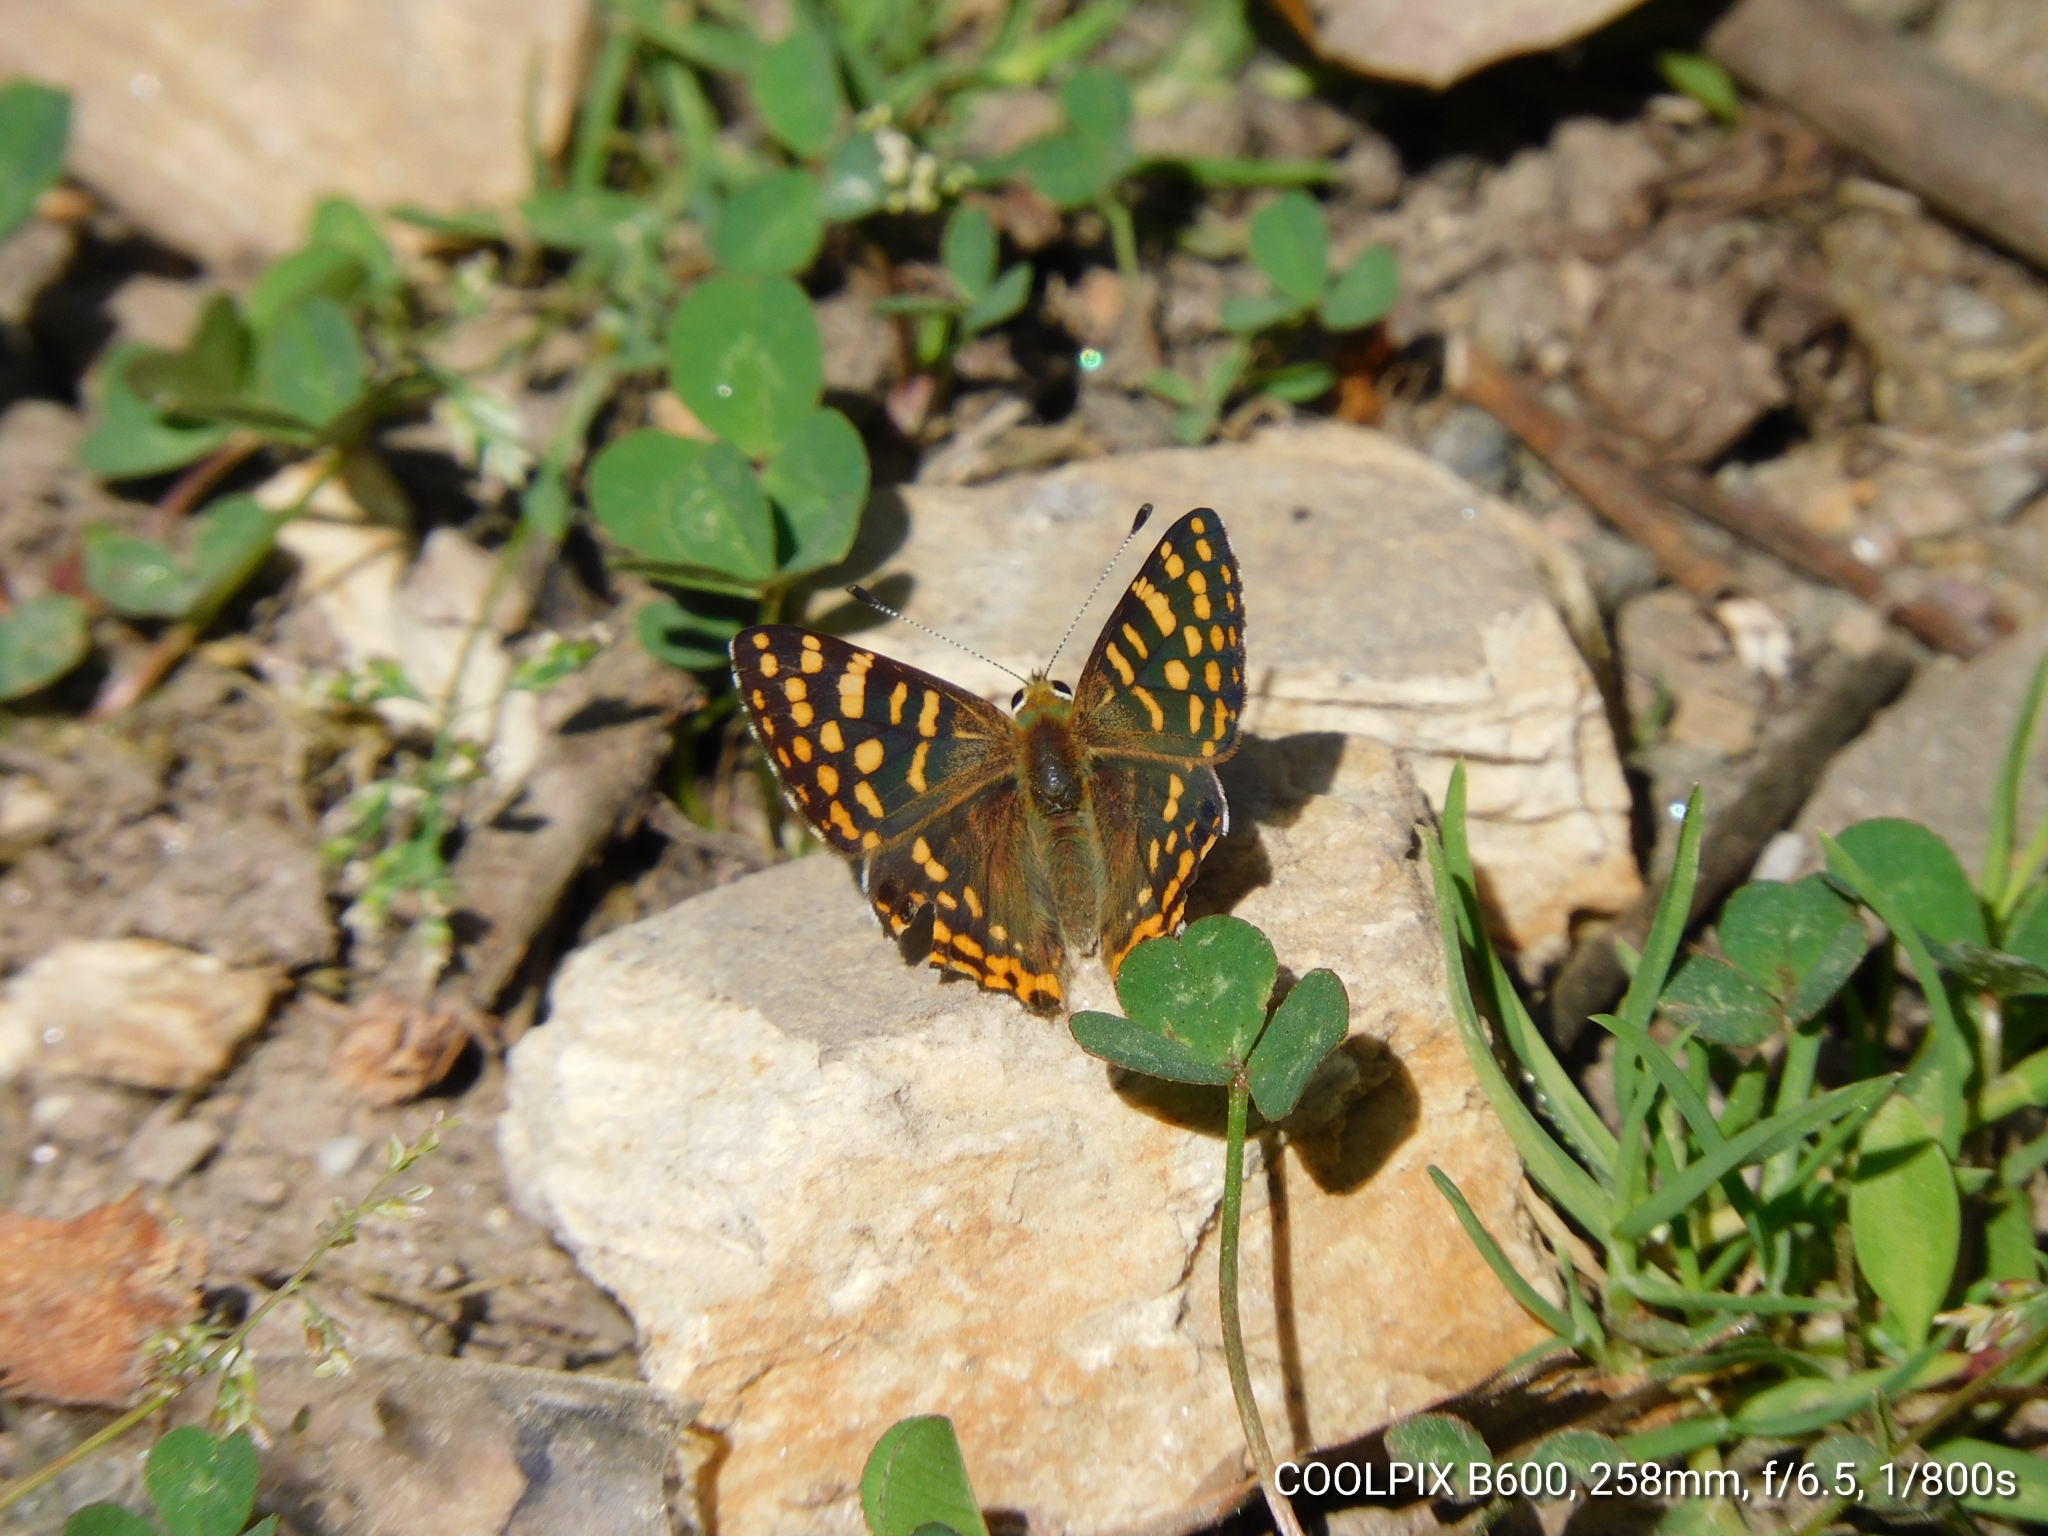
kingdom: Animalia
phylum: Arthropoda
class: Insecta
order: Lepidoptera
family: Lycaenidae
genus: Dodona
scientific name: Dodona durga
